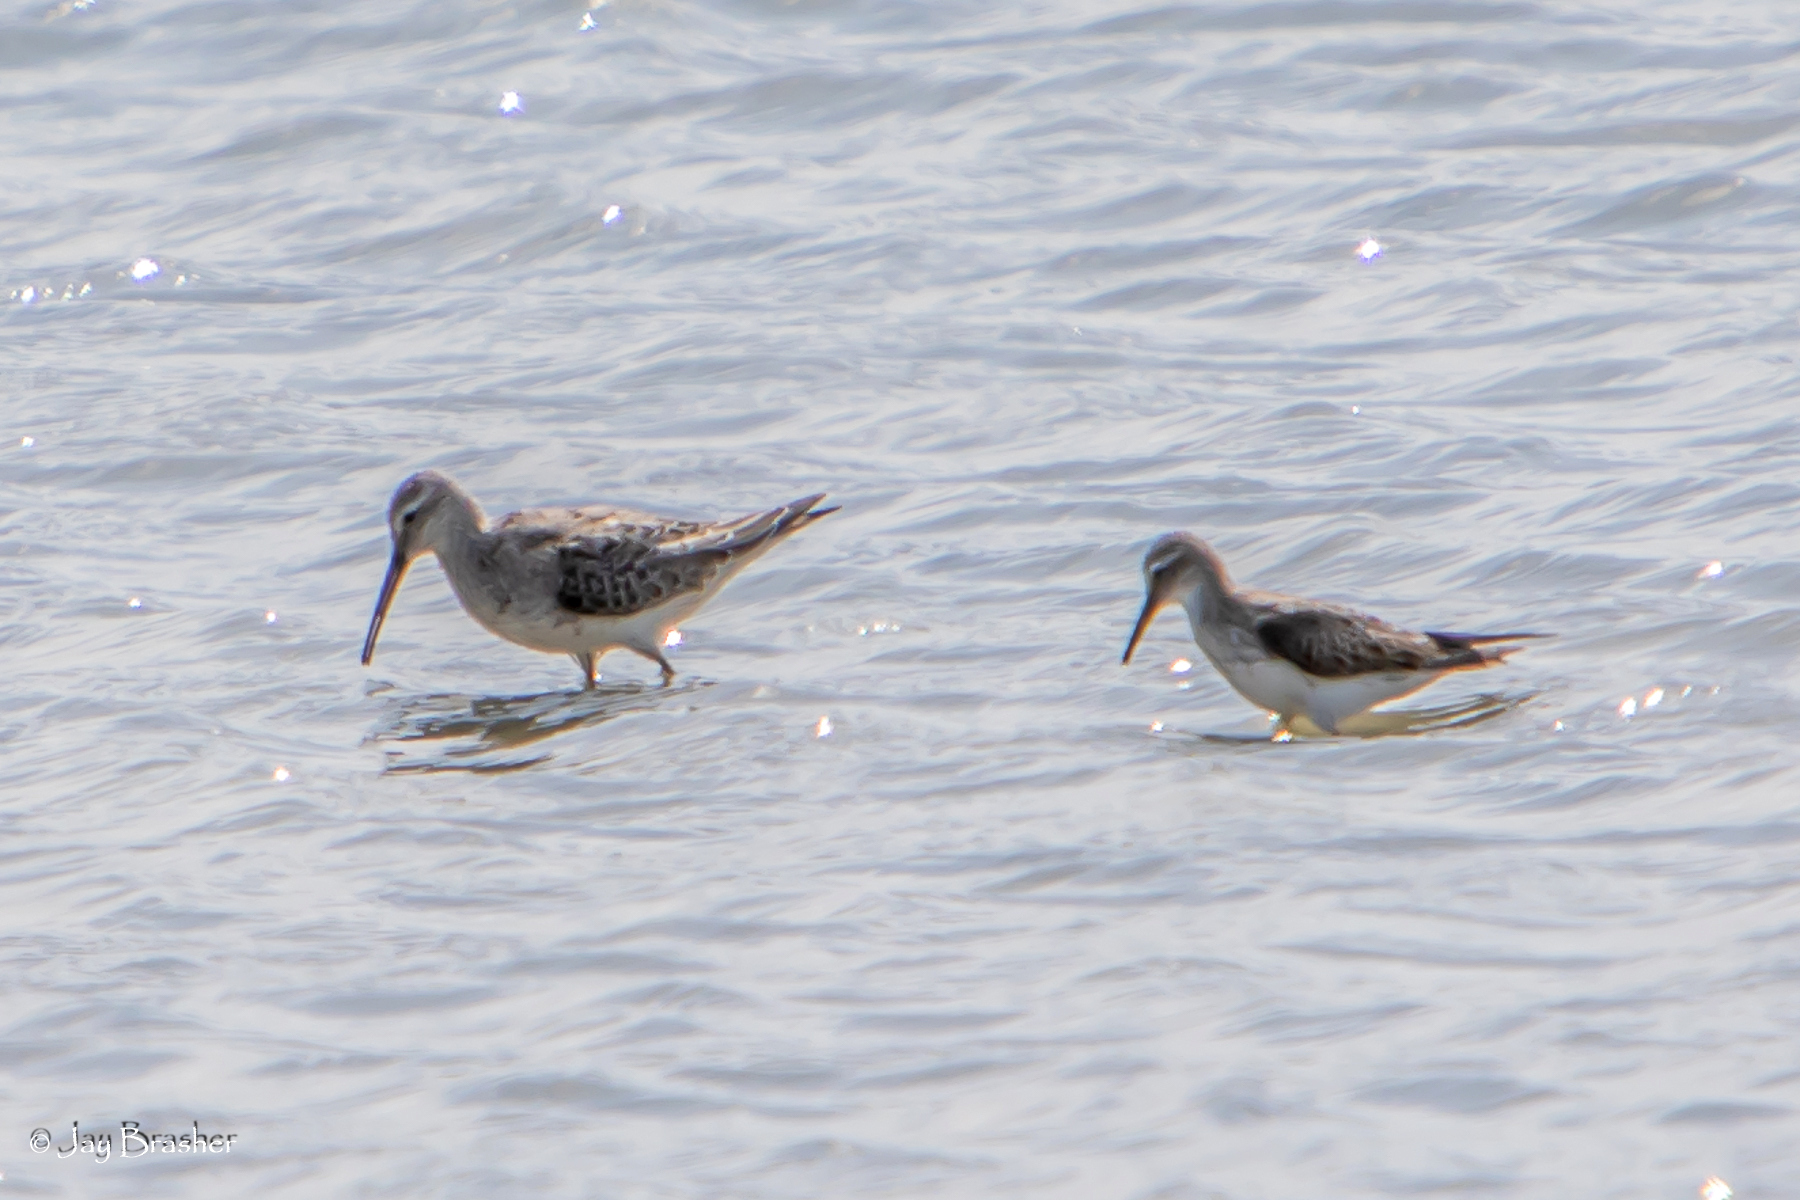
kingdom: Animalia
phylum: Chordata
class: Aves
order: Charadriiformes
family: Scolopacidae
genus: Calidris
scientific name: Calidris fuscicollis
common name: White-rumped sandpiper
